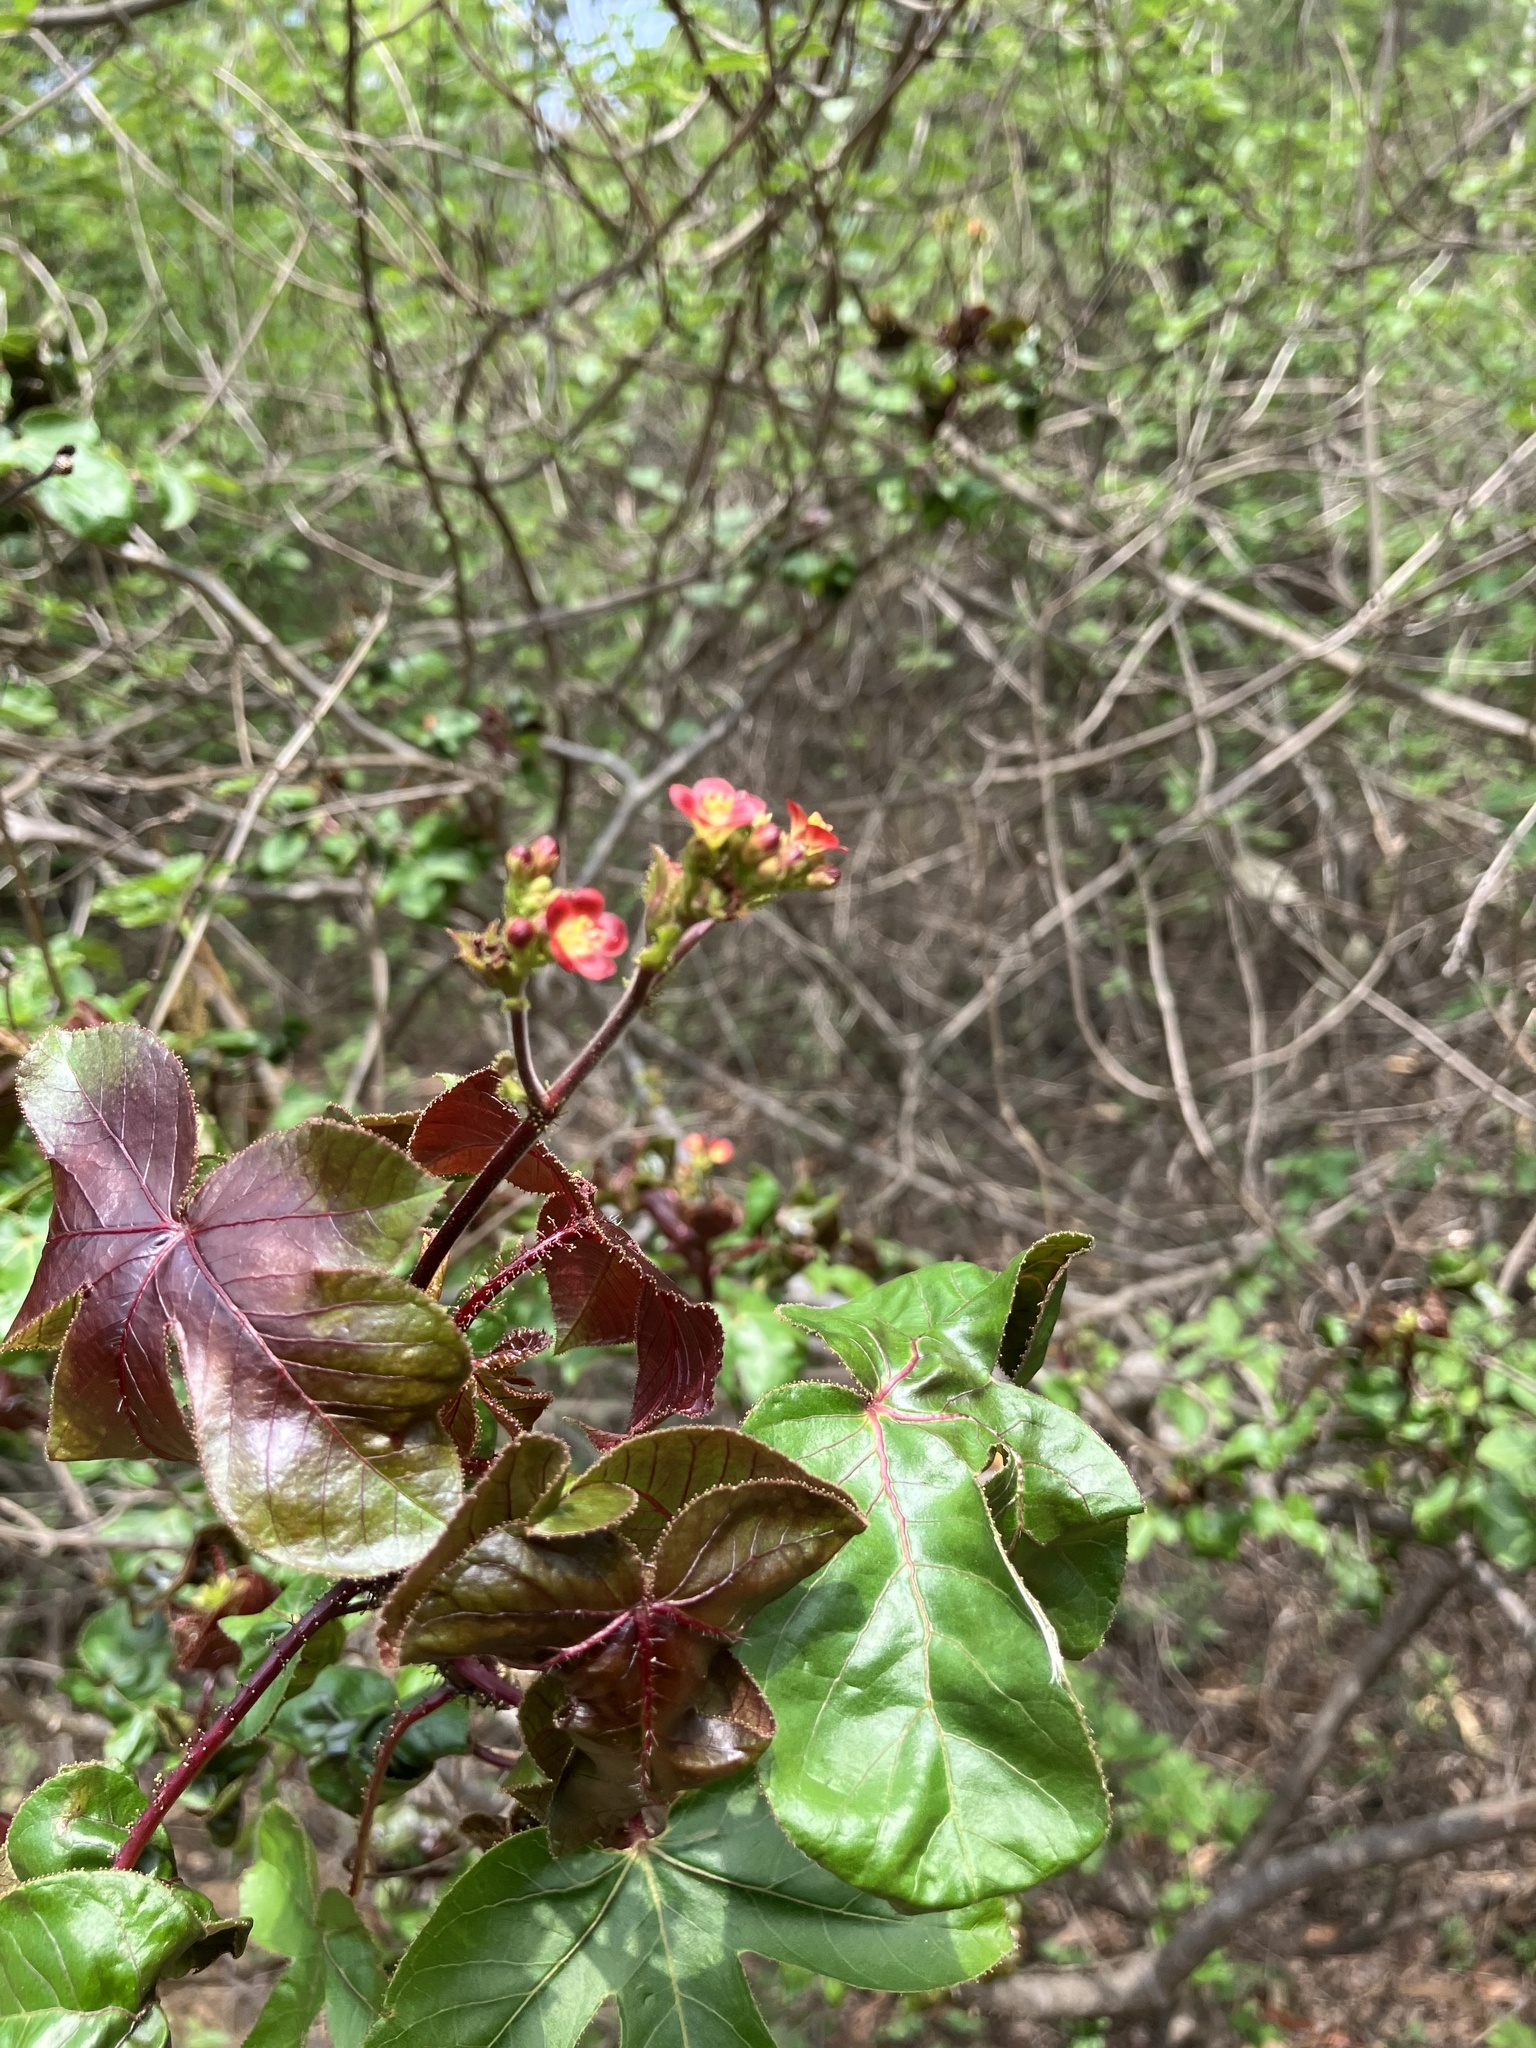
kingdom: Plantae
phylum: Tracheophyta
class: Magnoliopsida
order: Malpighiales
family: Euphorbiaceae
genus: Jatropha
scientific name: Jatropha gossypiifolia
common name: Bellyache bush
